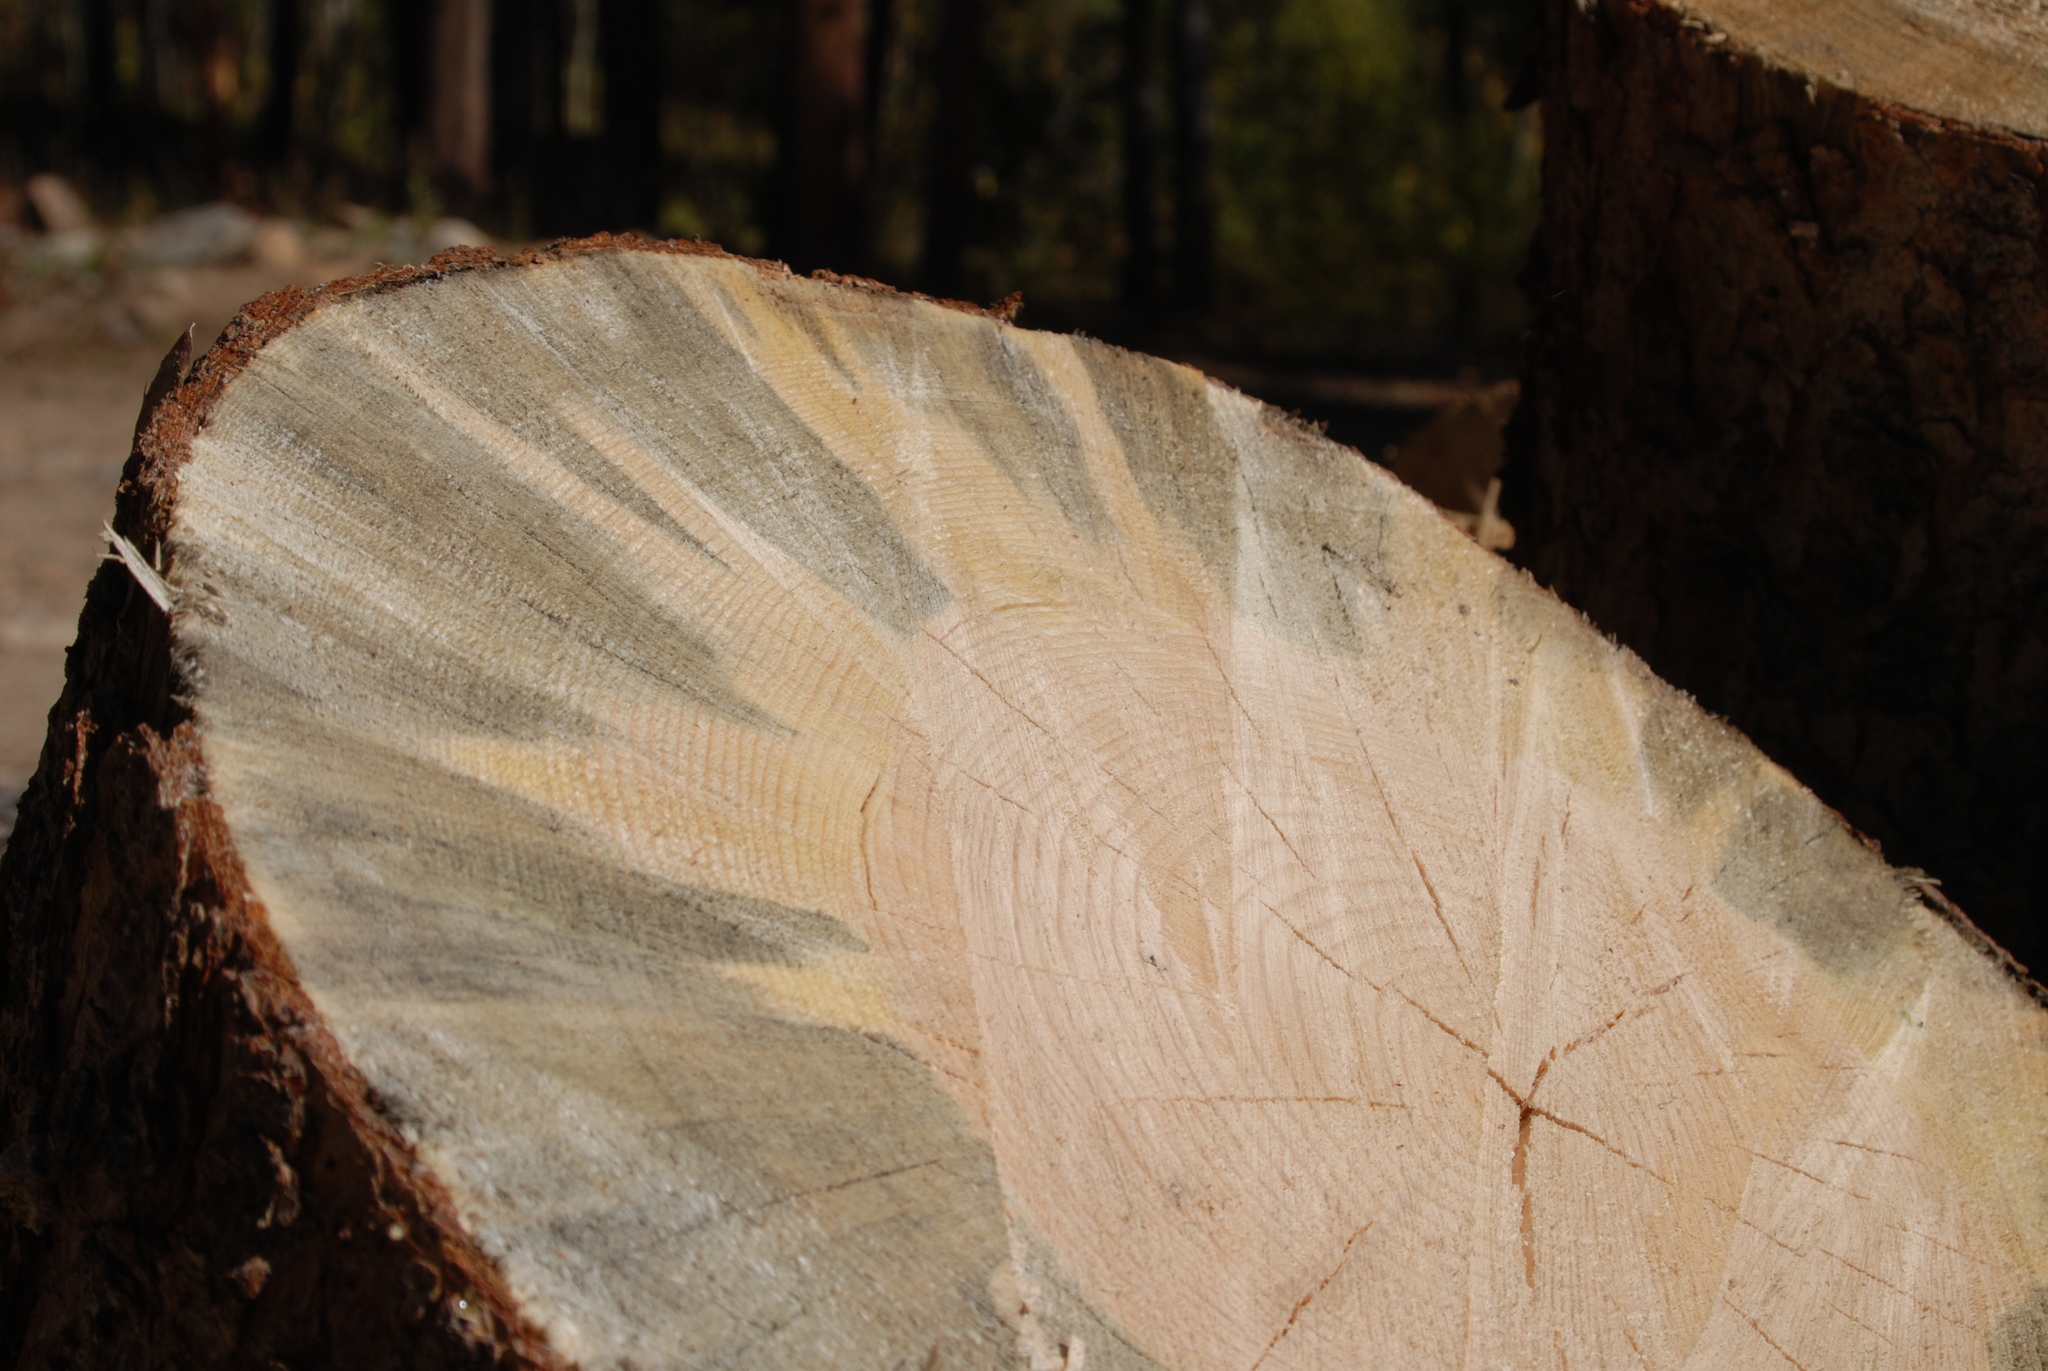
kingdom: Fungi
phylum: Ascomycota
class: Sordariomycetes
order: Microascales
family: Ceratocystidaceae
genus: Grosmannia
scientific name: Grosmannia clavigera
